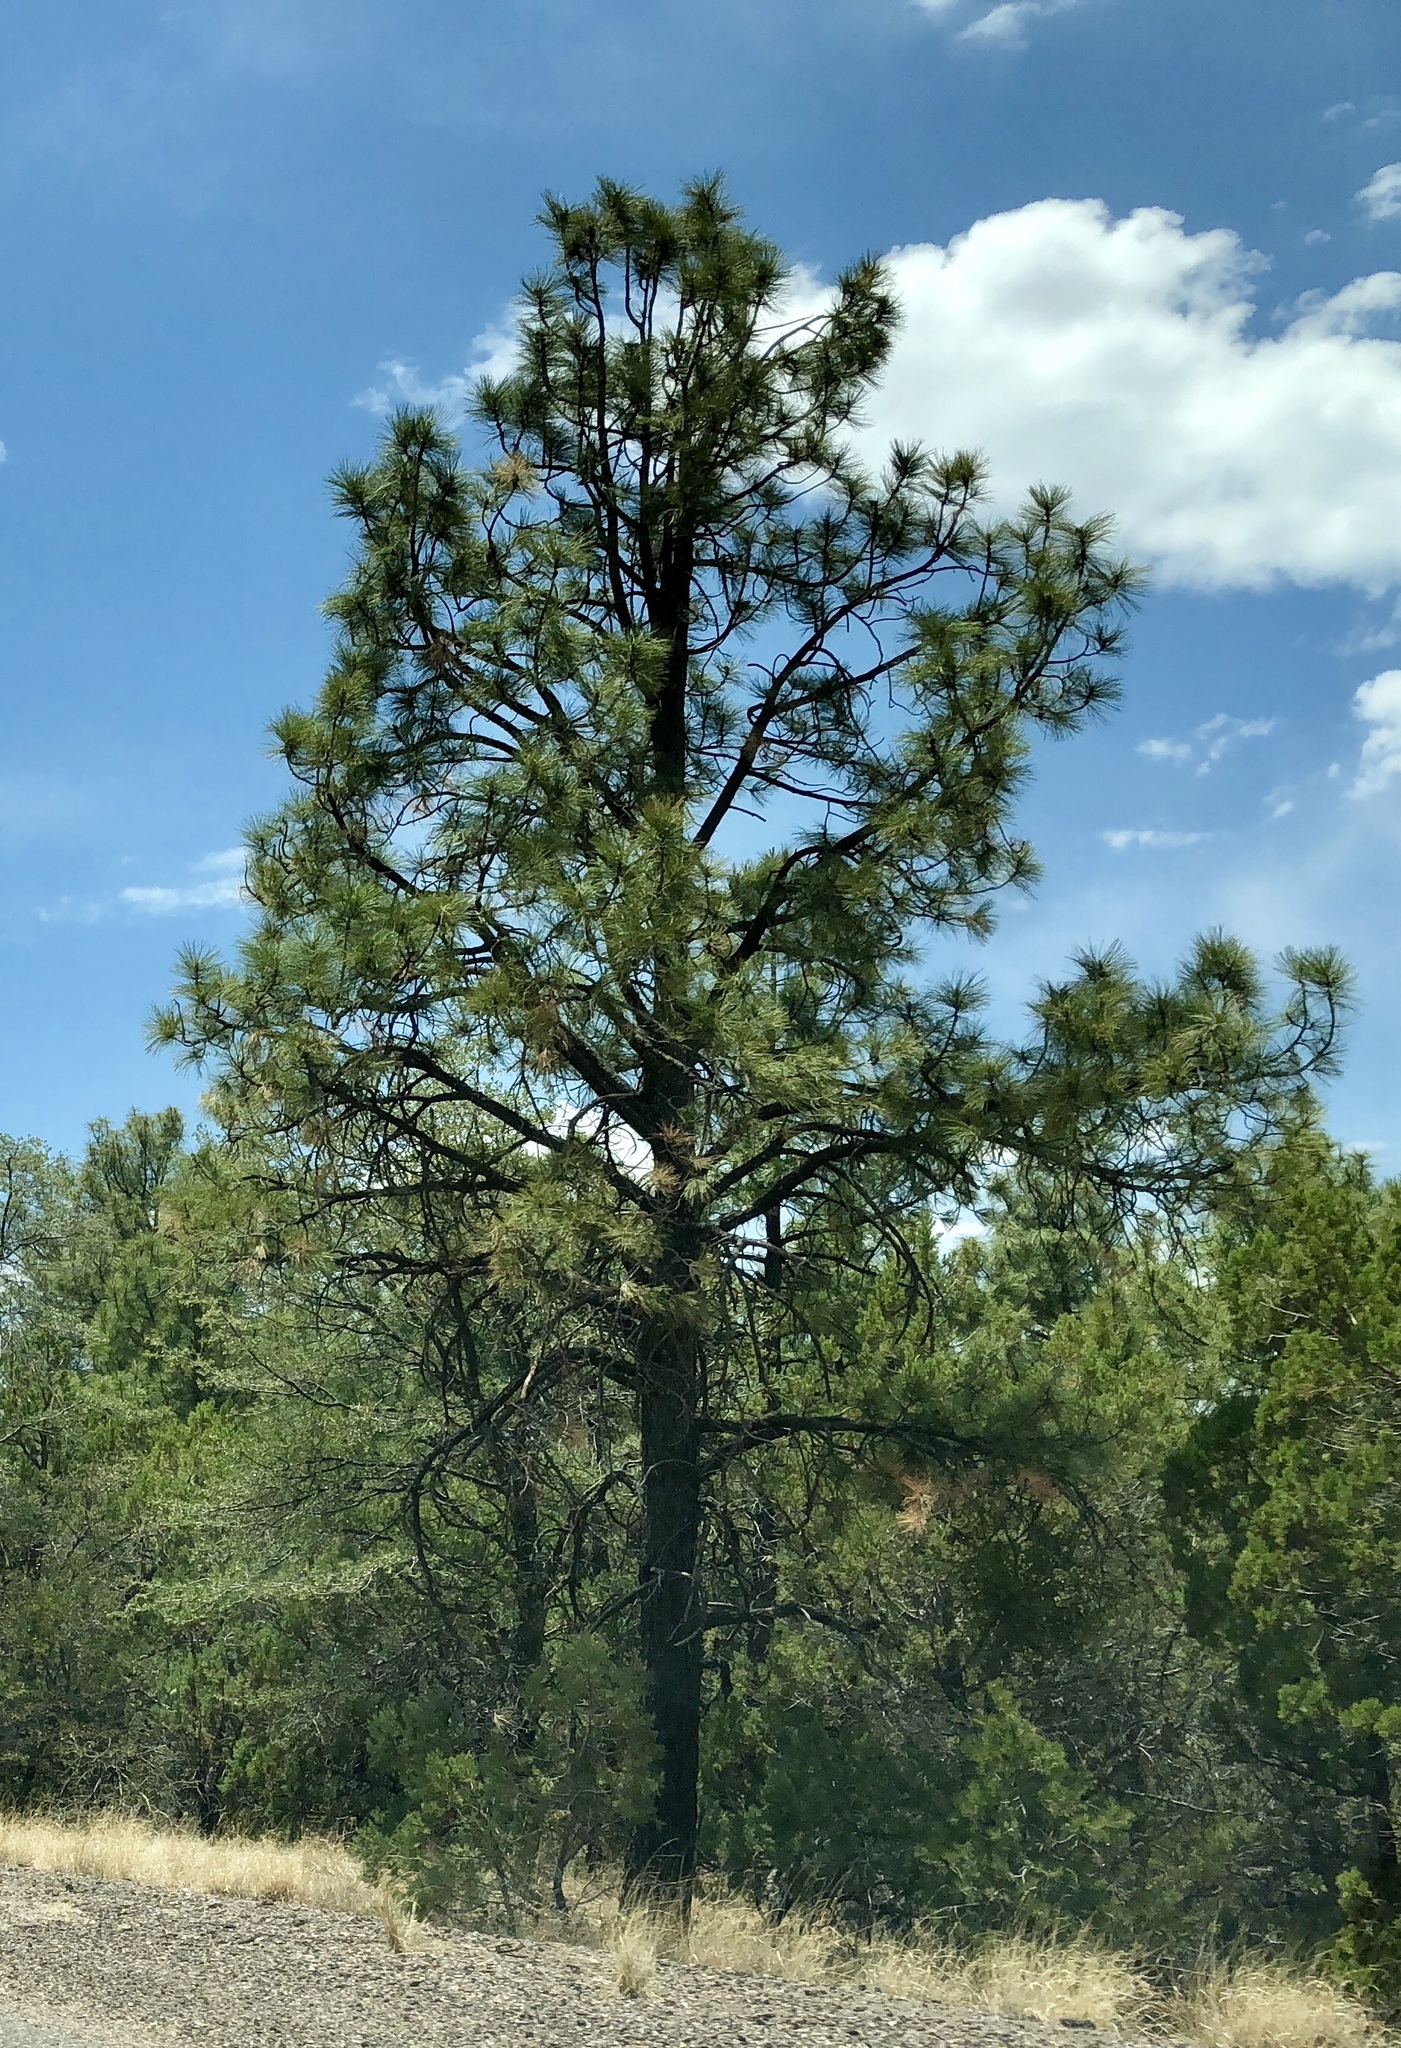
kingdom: Plantae
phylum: Tracheophyta
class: Pinopsida
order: Pinales
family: Pinaceae
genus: Pinus
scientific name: Pinus ponderosa
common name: Western yellow-pine
